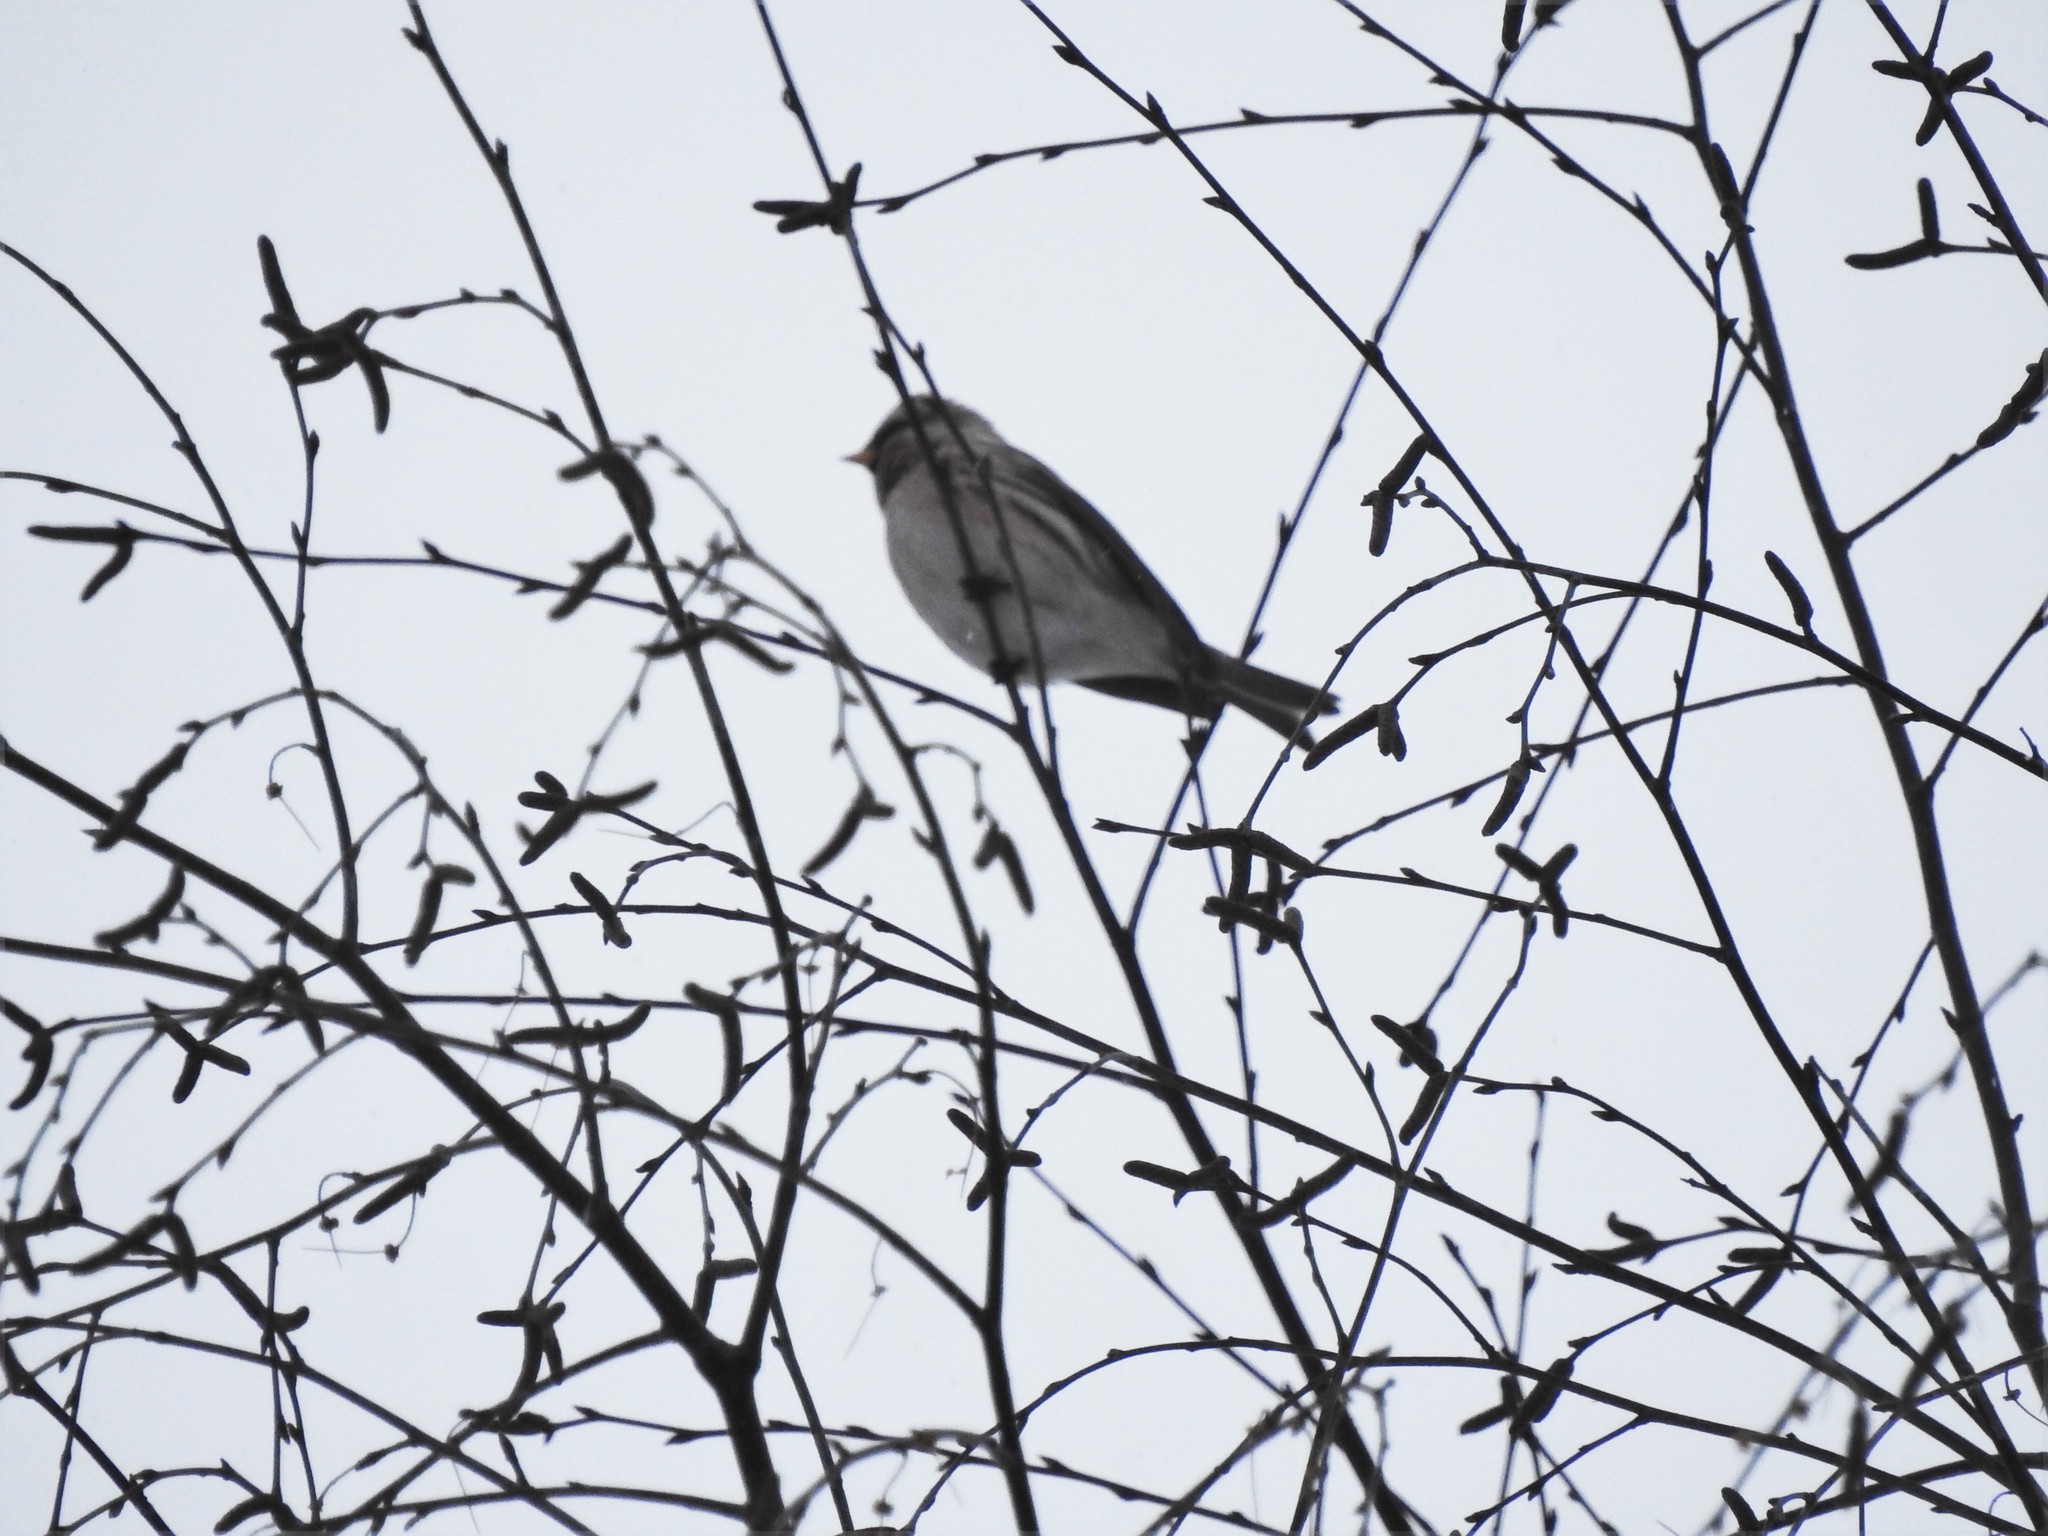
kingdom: Animalia
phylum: Chordata
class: Aves
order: Passeriformes
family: Fringillidae
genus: Acanthis
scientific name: Acanthis flammea
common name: Common redpoll
